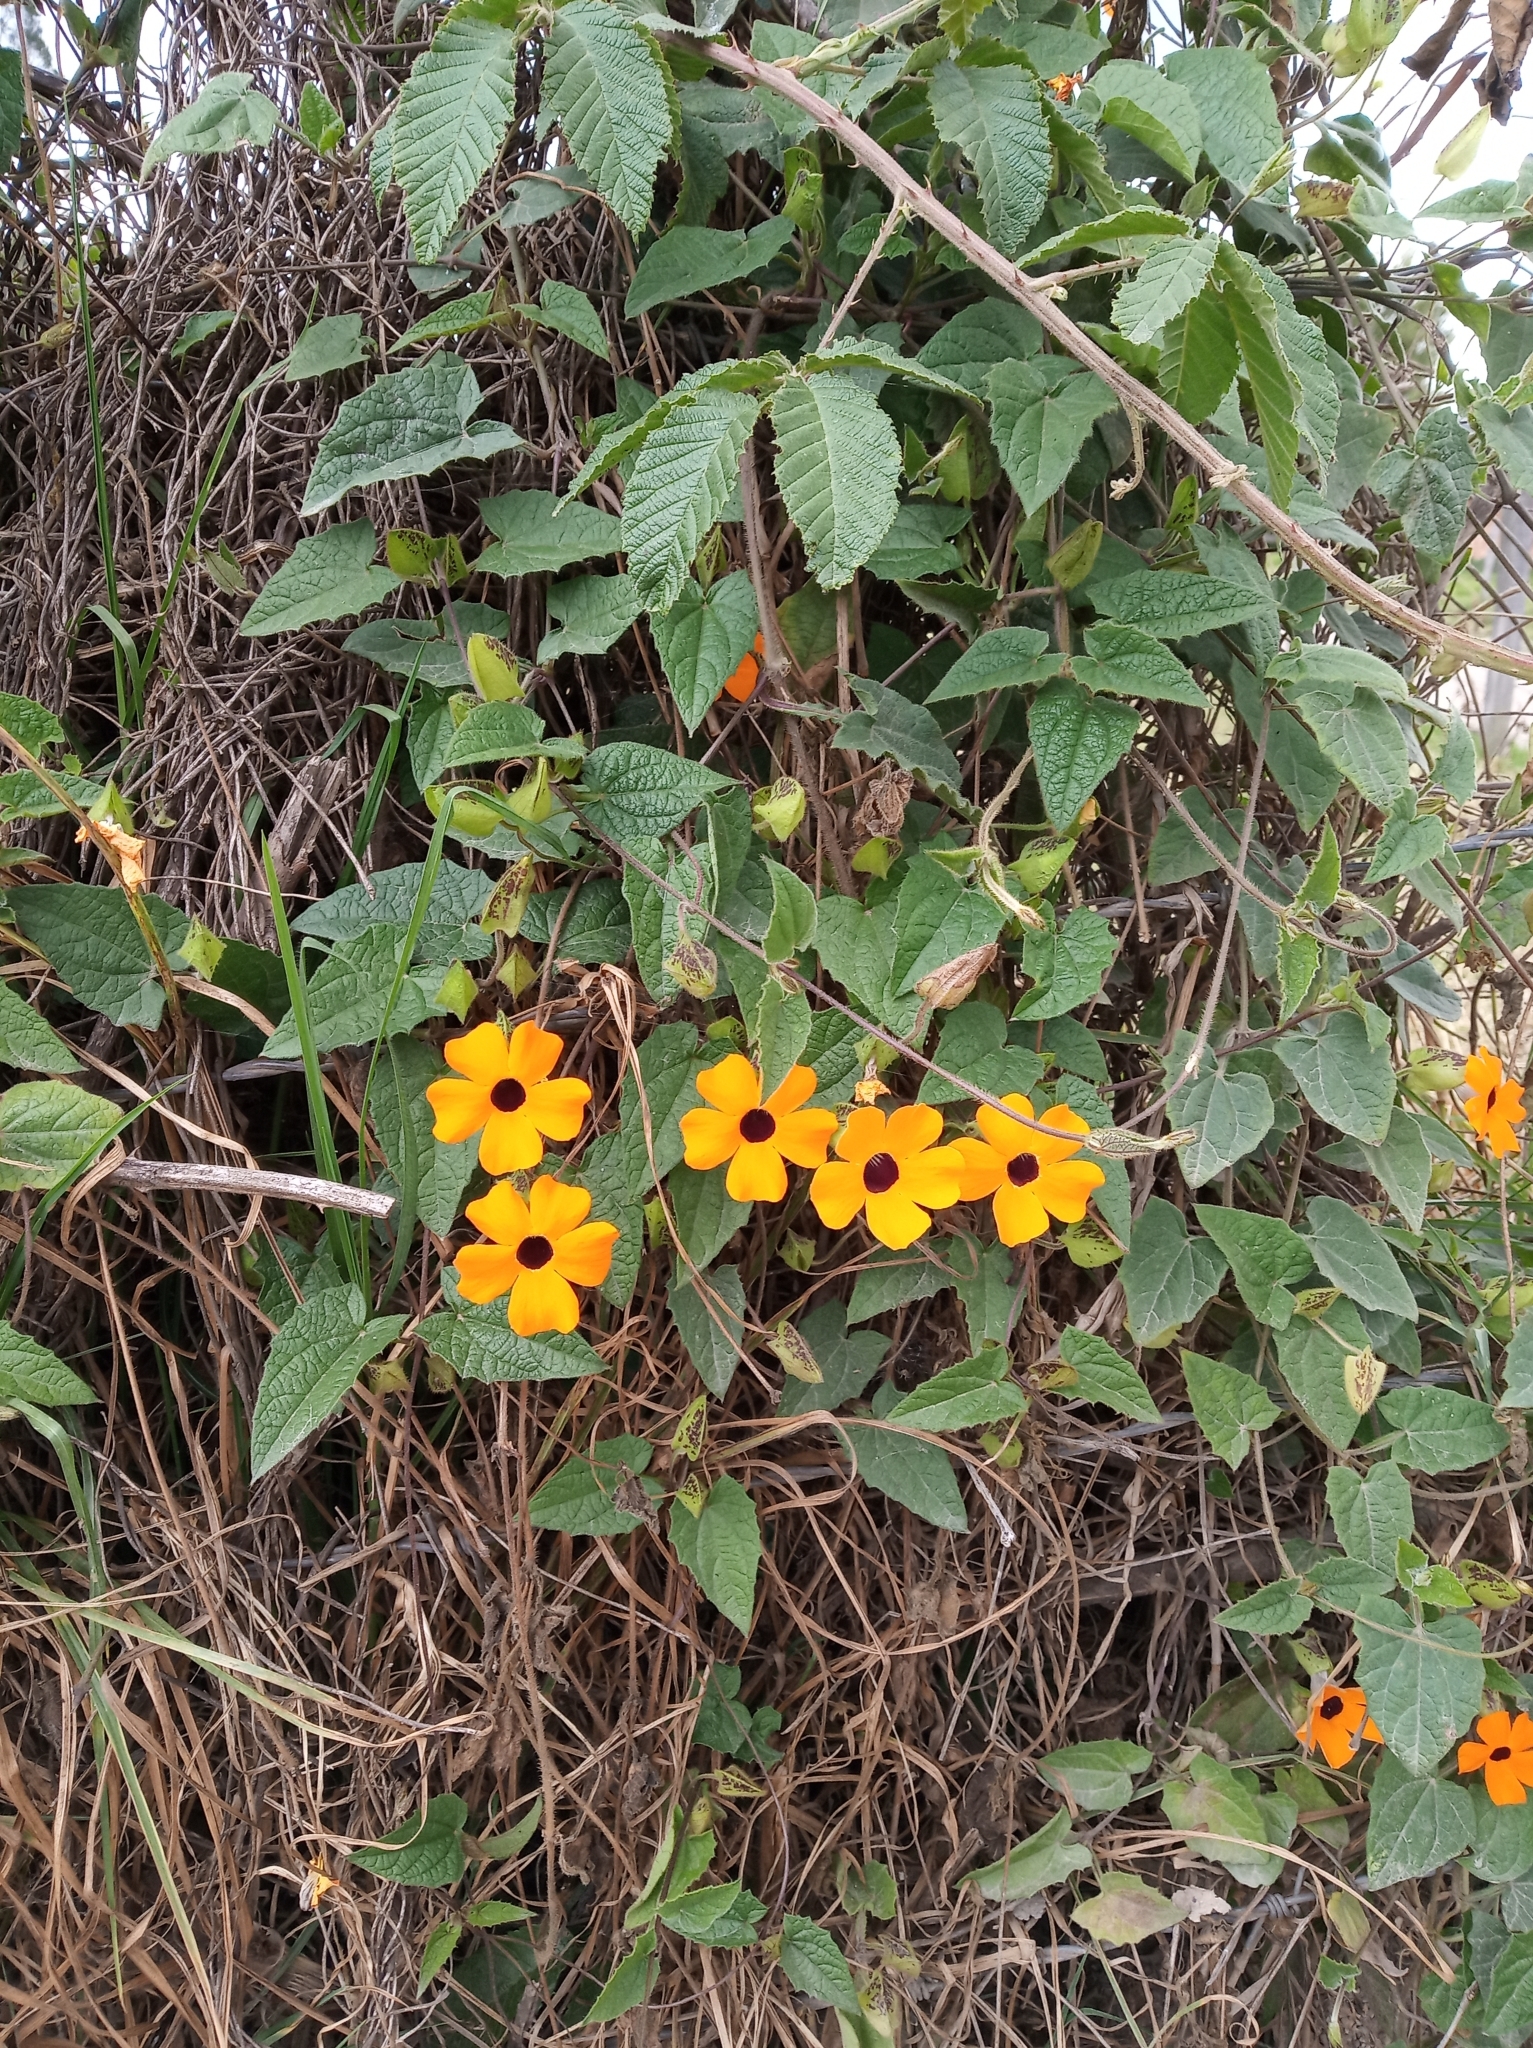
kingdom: Plantae
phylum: Tracheophyta
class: Magnoliopsida
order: Lamiales
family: Acanthaceae
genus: Thunbergia
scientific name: Thunbergia alata
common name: Blackeyed susan vine
